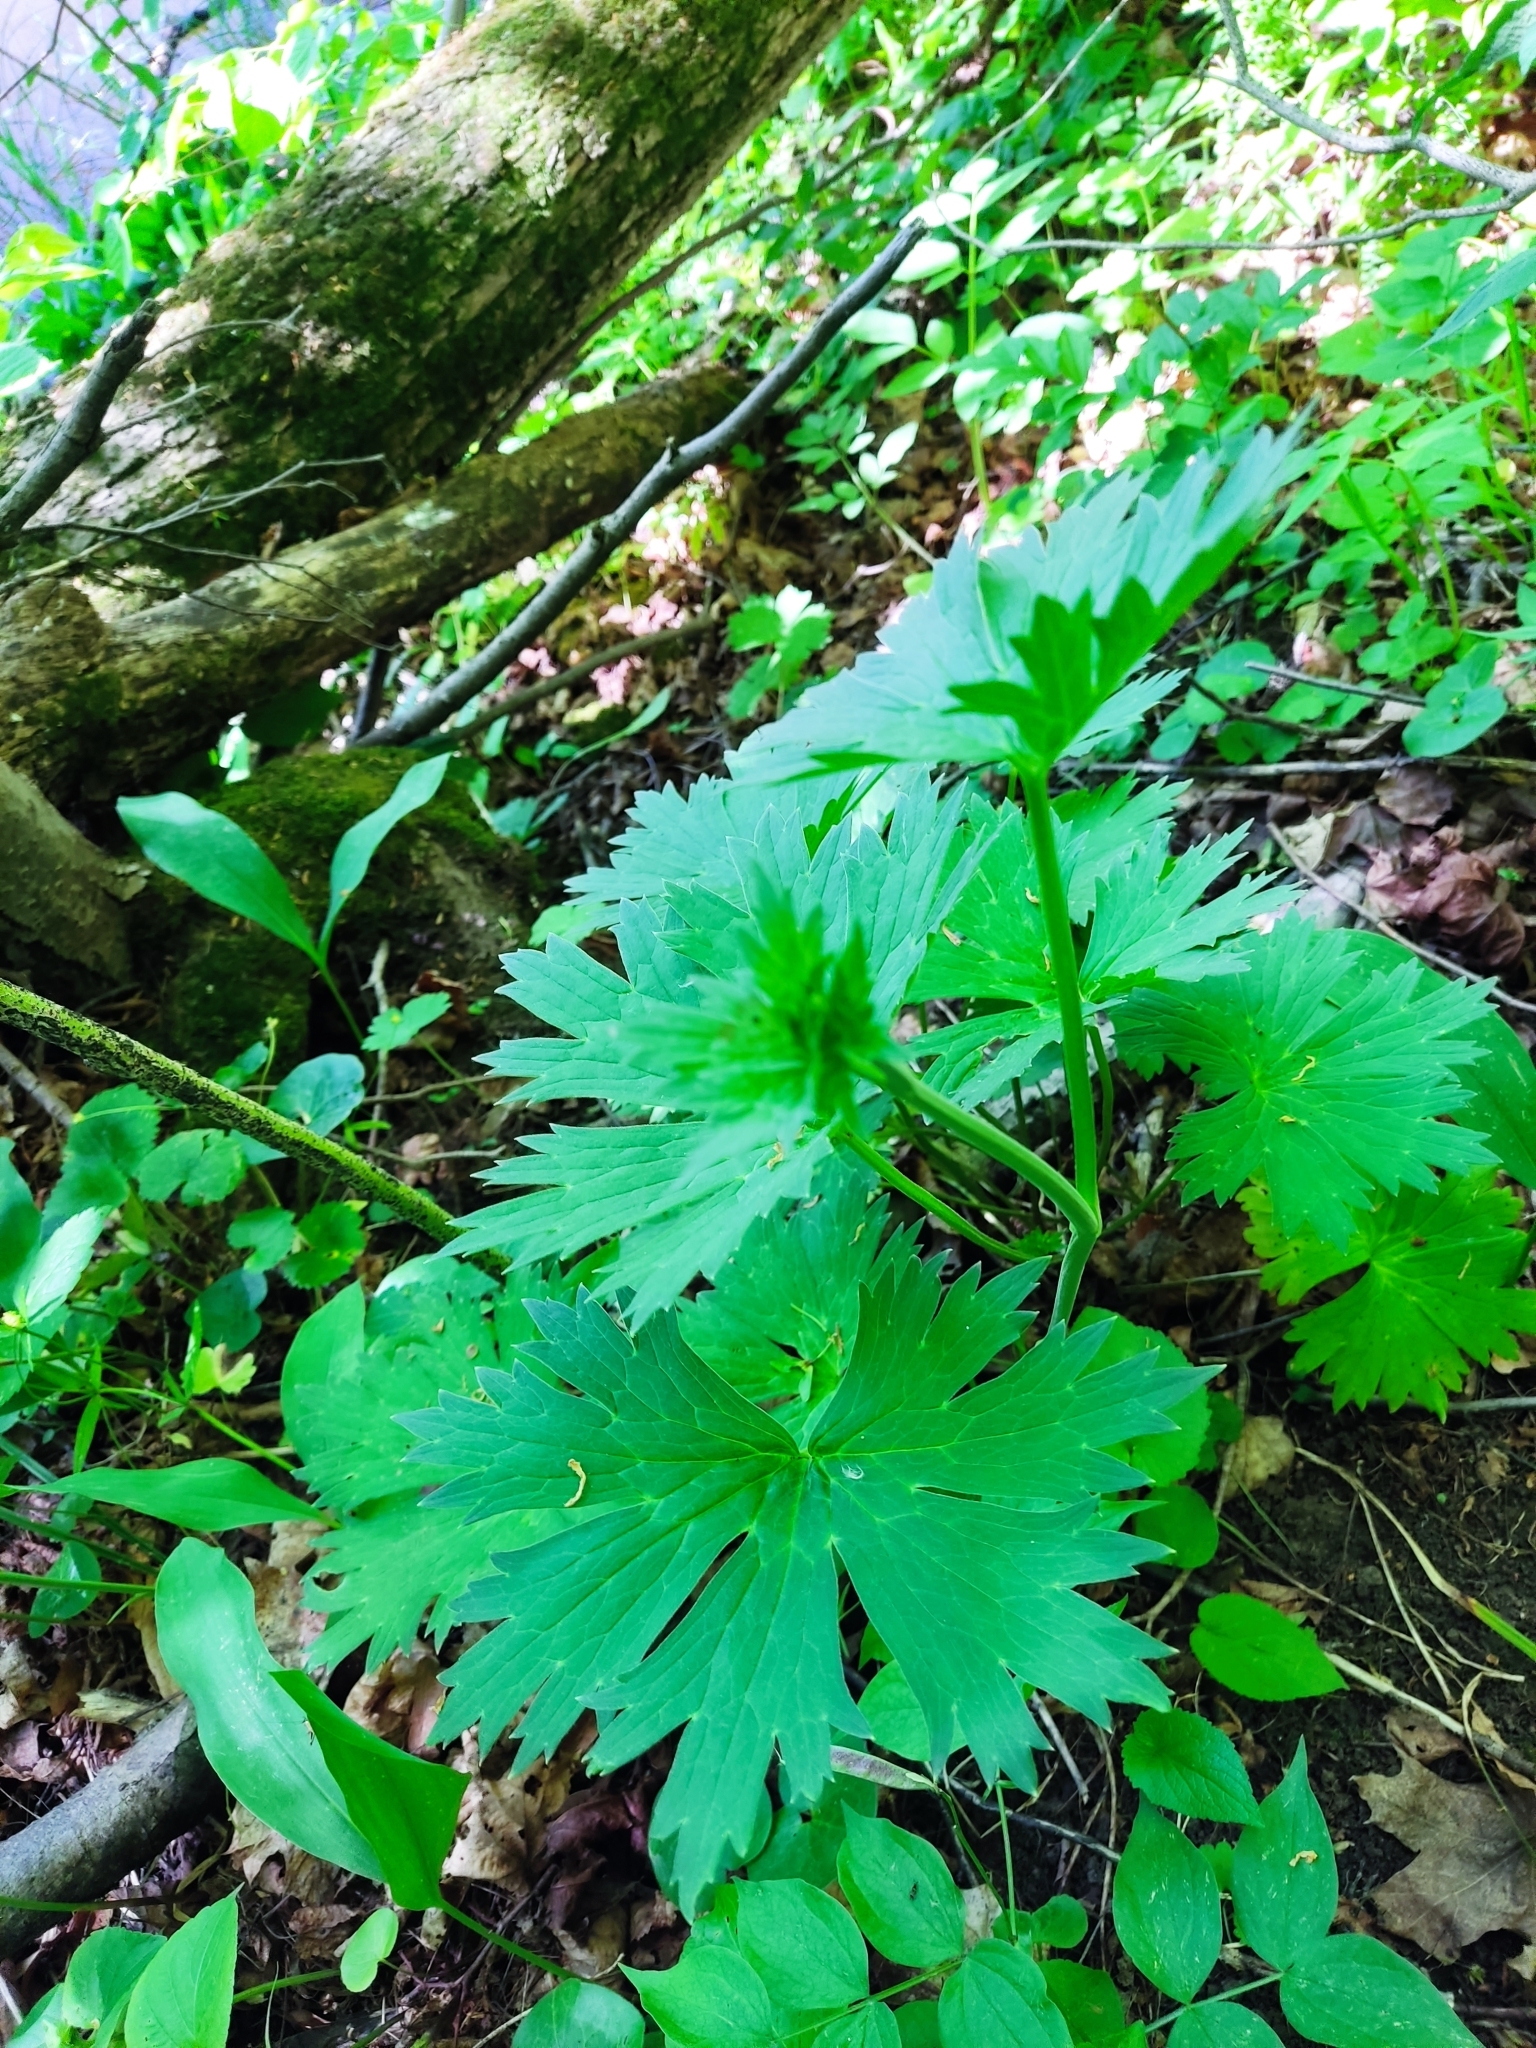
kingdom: Plantae
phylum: Tracheophyta
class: Magnoliopsida
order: Ranunculales
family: Ranunculaceae
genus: Aconitum
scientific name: Aconitum lasiostomum
